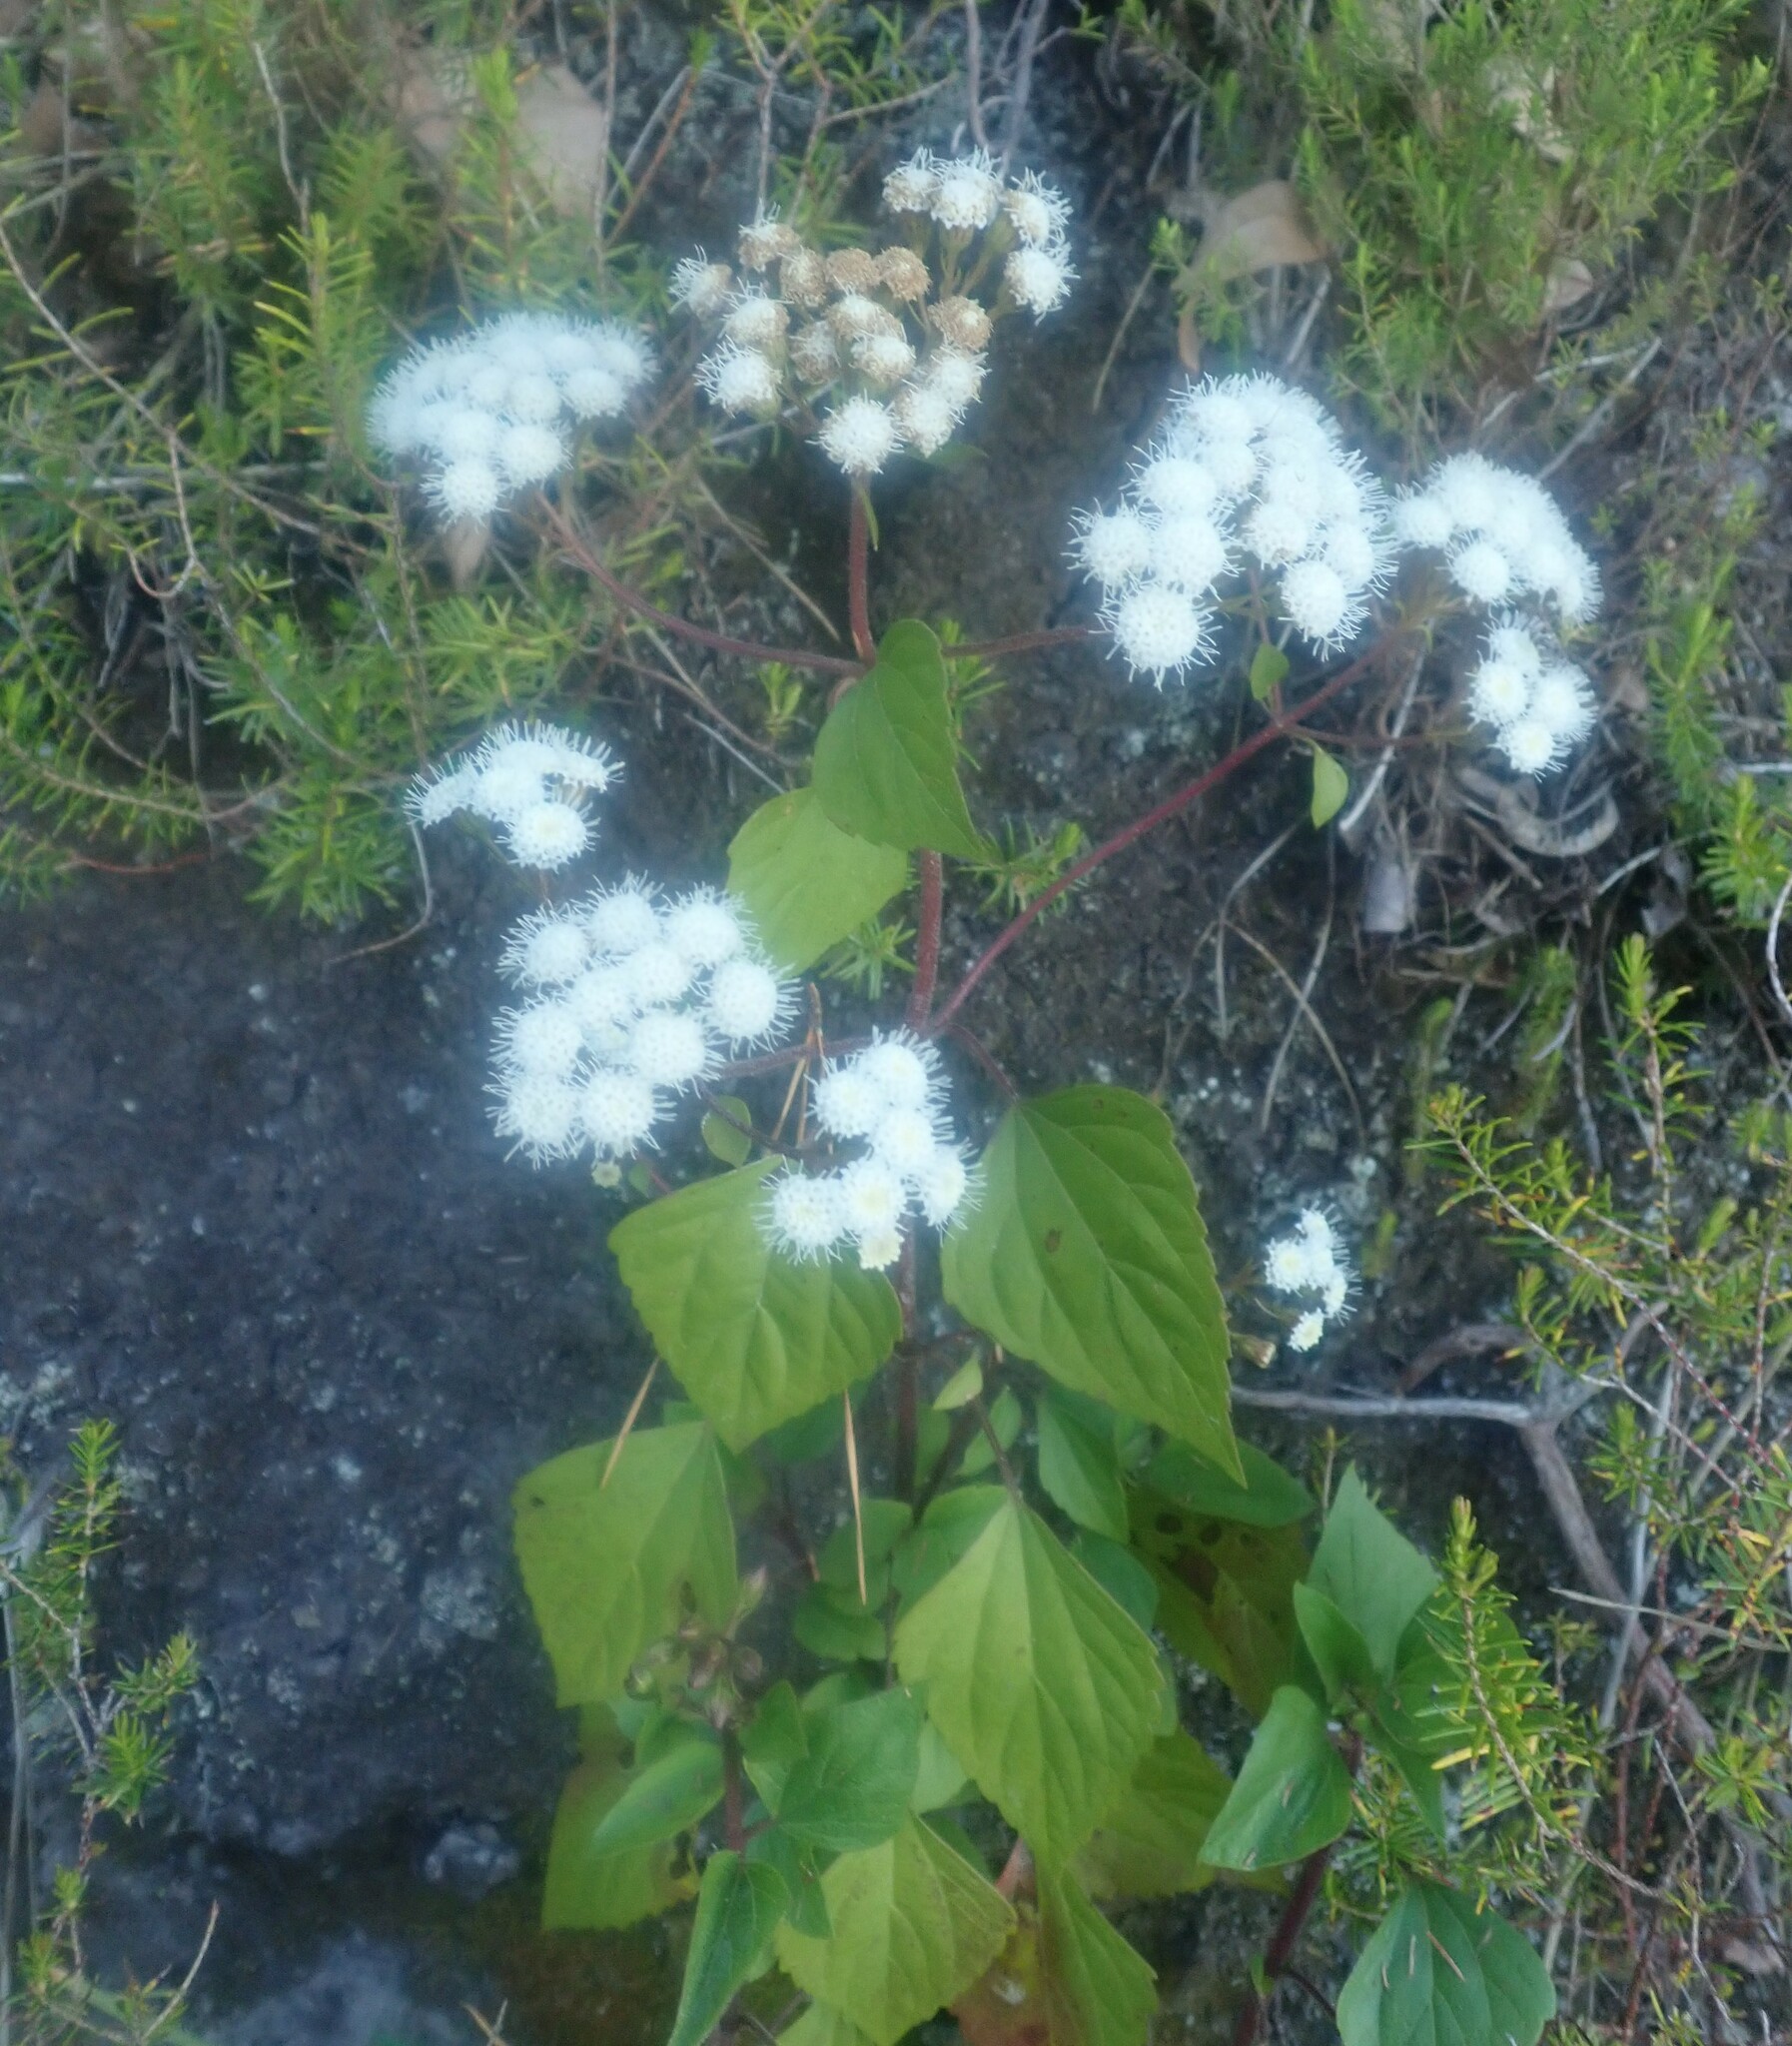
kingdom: Plantae
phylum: Tracheophyta
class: Magnoliopsida
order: Asterales
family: Asteraceae
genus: Ageratina
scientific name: Ageratina adenophora
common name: Sticky snakeroot
